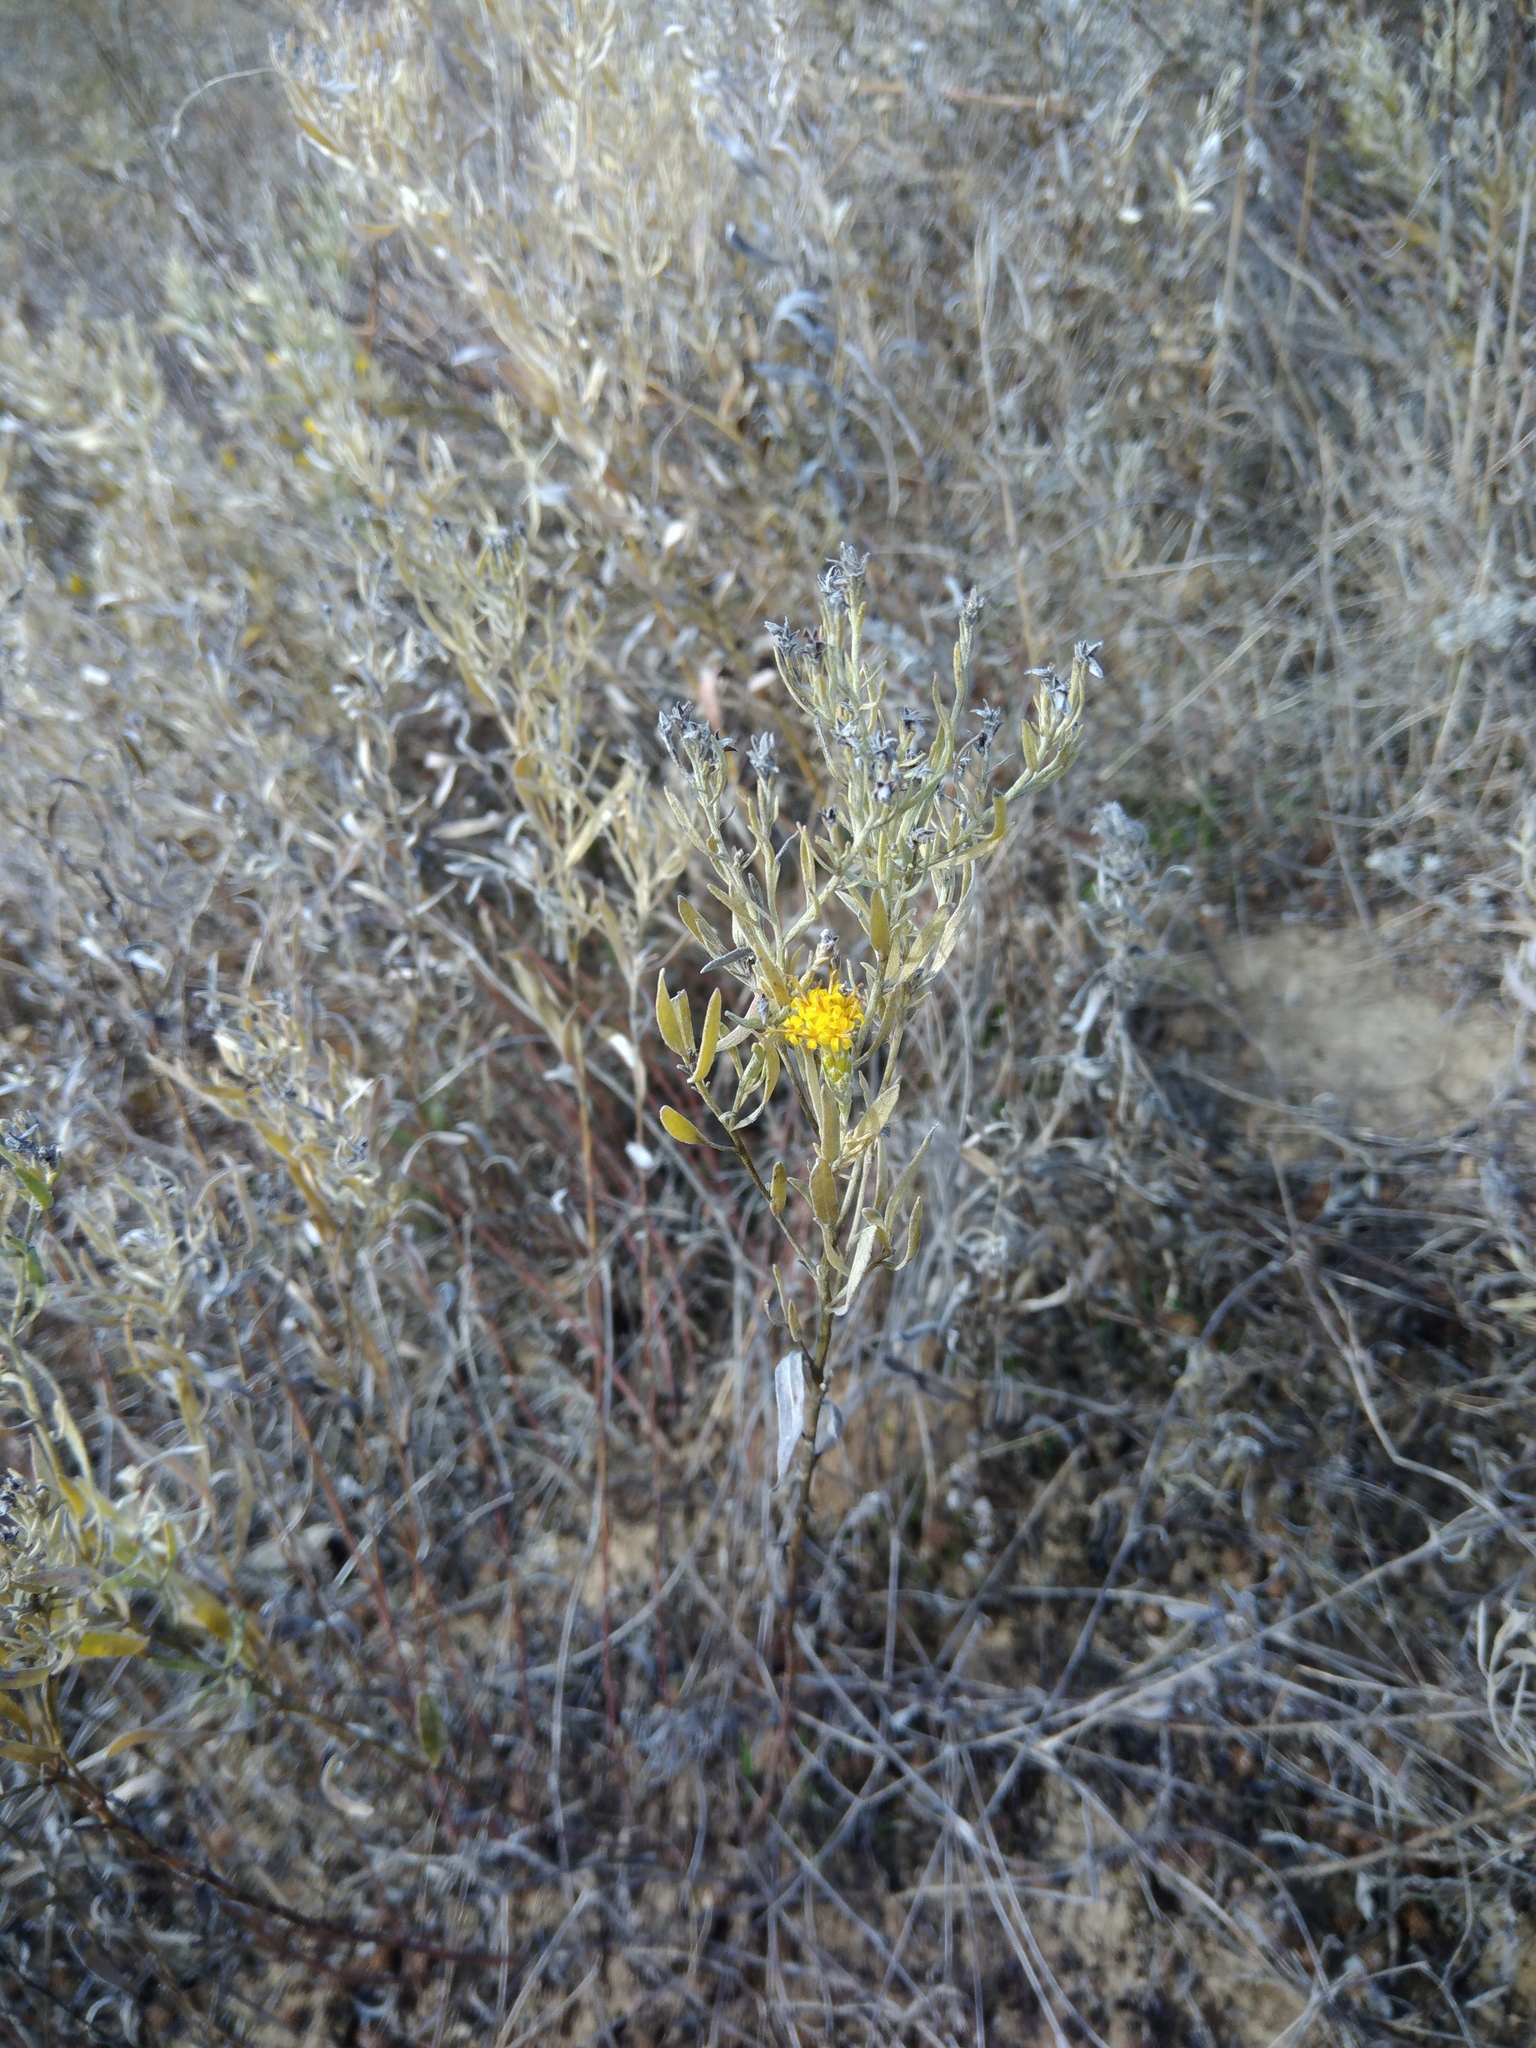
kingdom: Plantae
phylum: Tracheophyta
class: Magnoliopsida
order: Asterales
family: Asteraceae
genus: Galatella
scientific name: Galatella villosa
